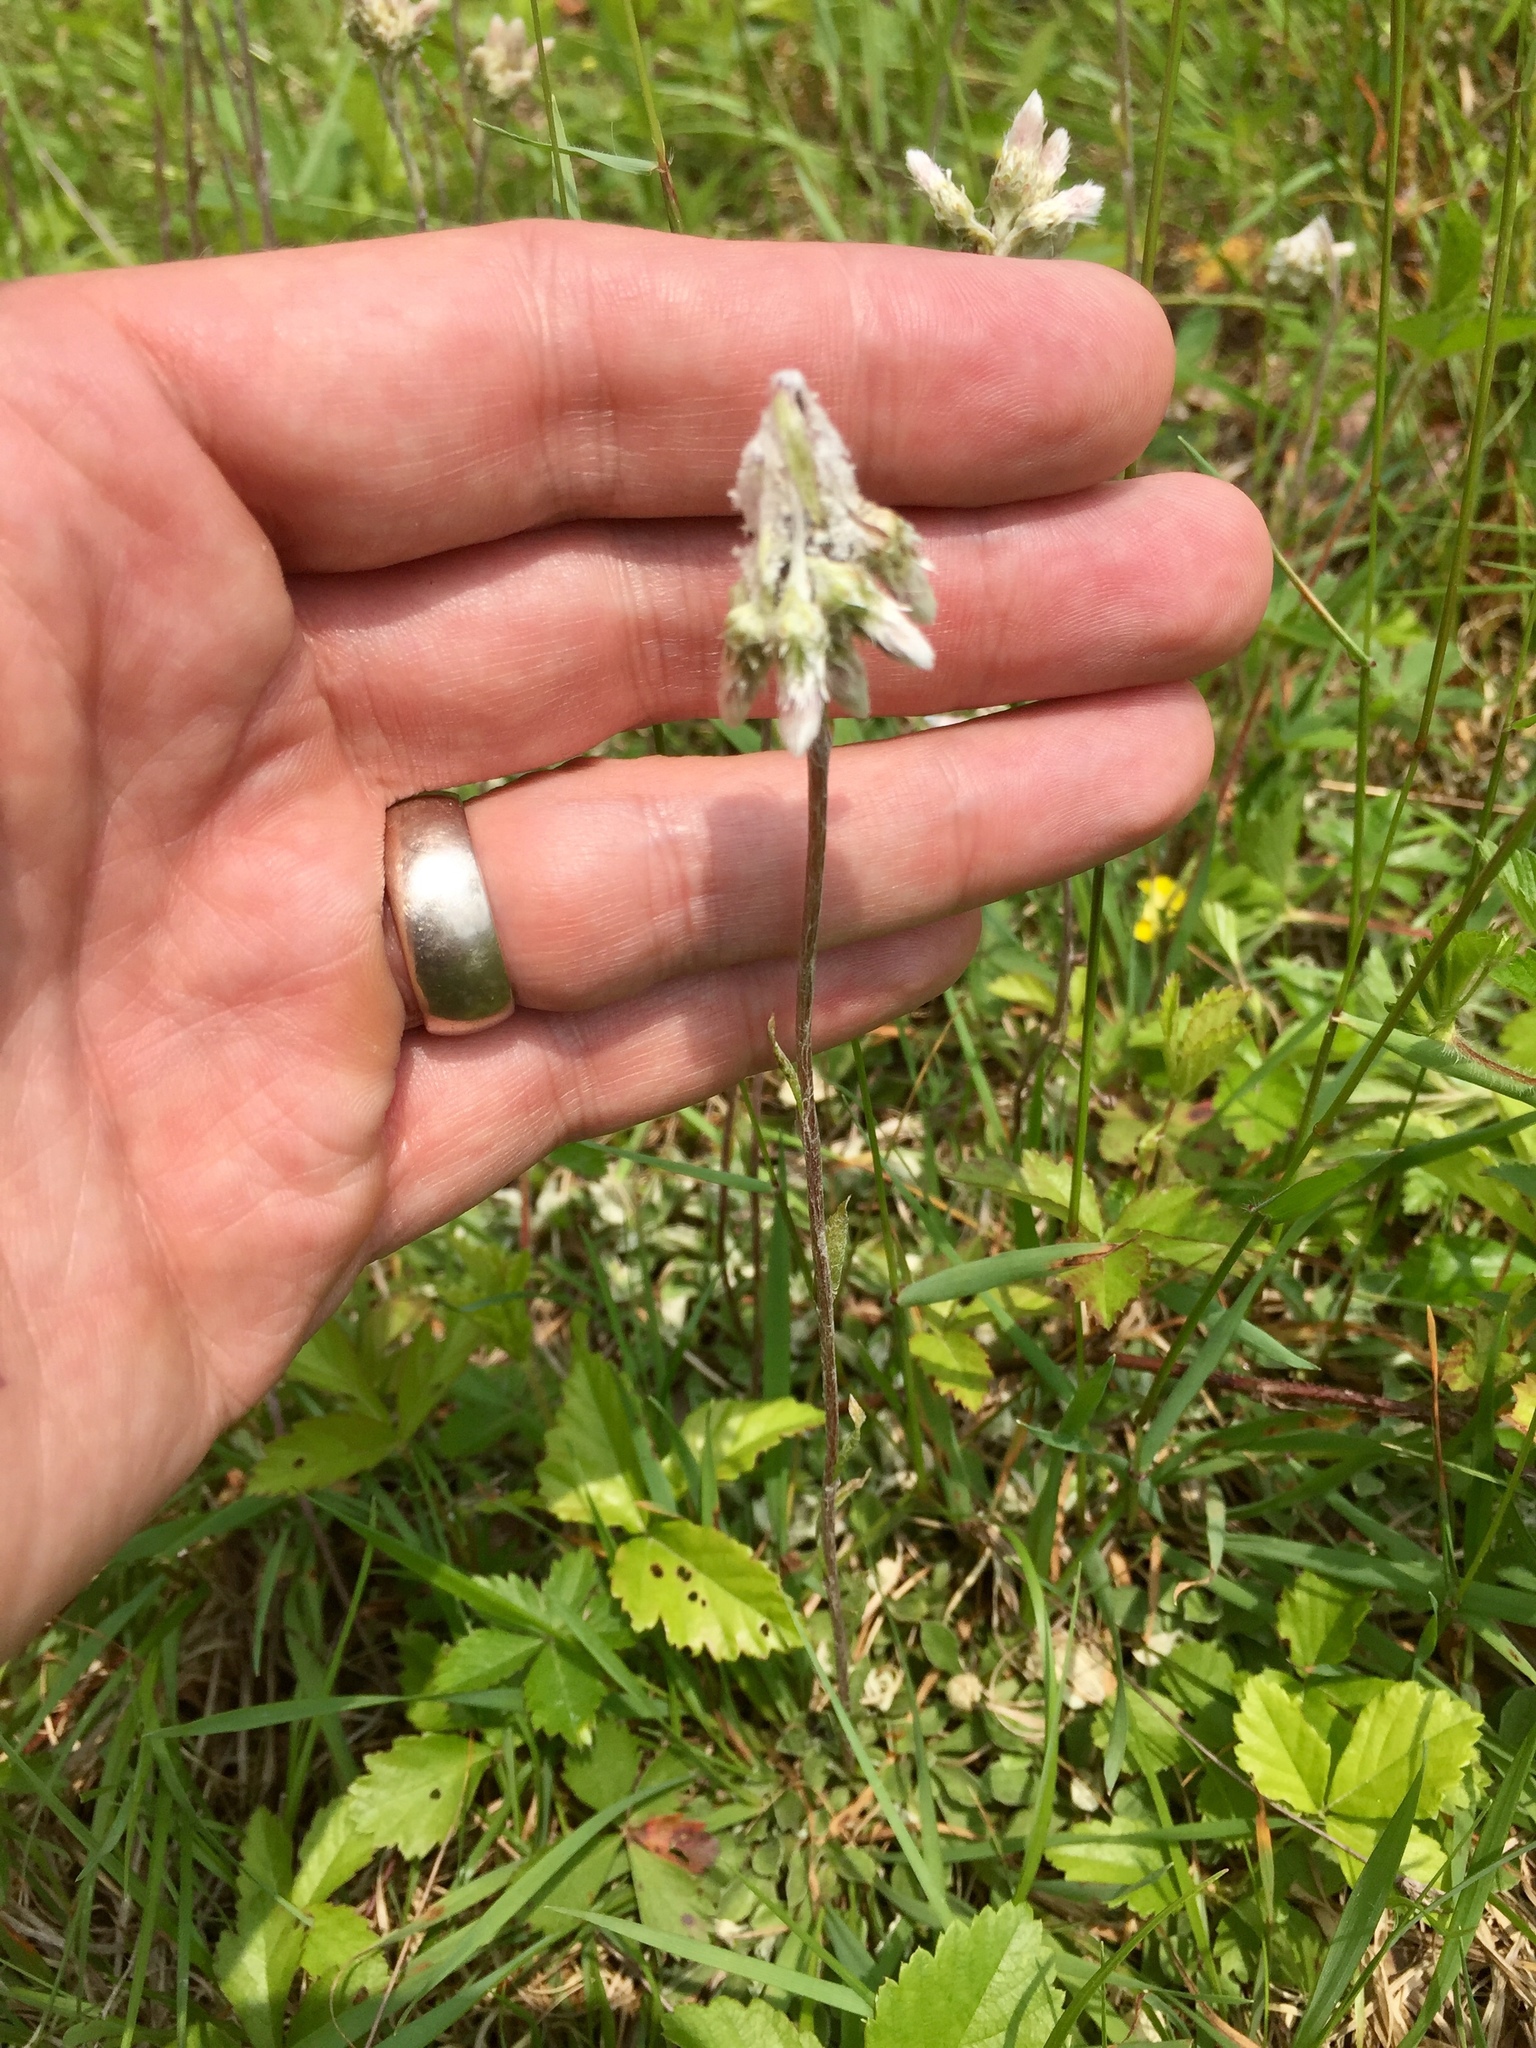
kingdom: Plantae
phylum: Tracheophyta
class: Magnoliopsida
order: Asterales
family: Asteraceae
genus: Antennaria
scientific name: Antennaria howellii
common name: Howell's pussytoes
